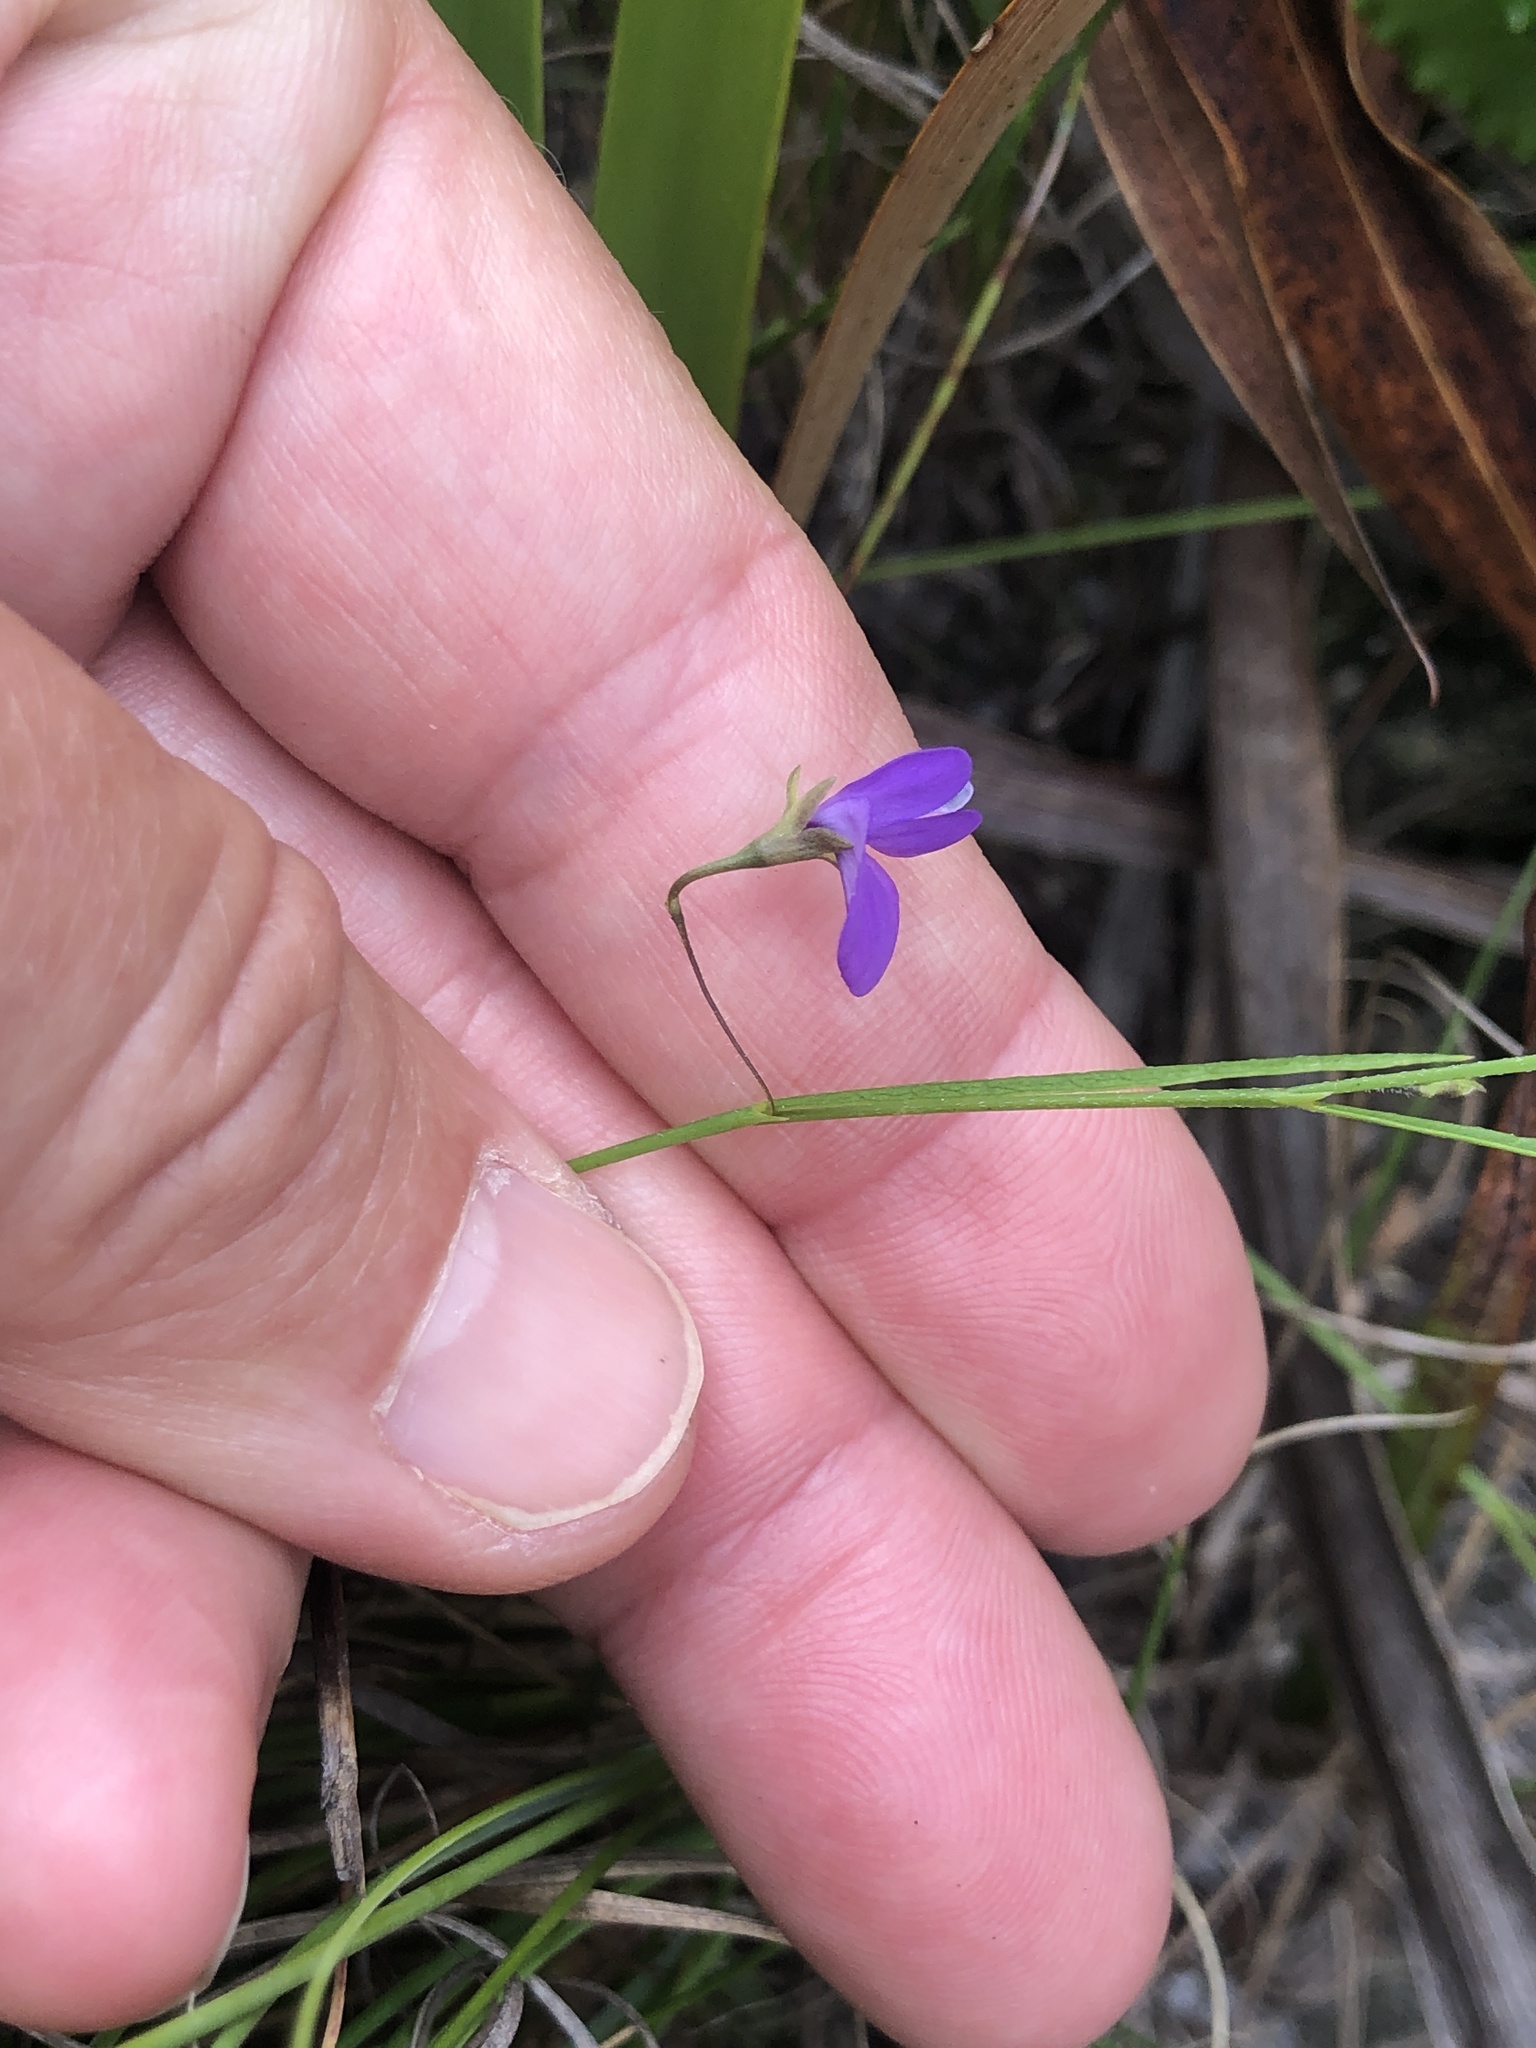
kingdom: Plantae
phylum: Tracheophyta
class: Magnoliopsida
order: Fabales
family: Fabaceae
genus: Psoralea
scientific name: Psoralea laxa
